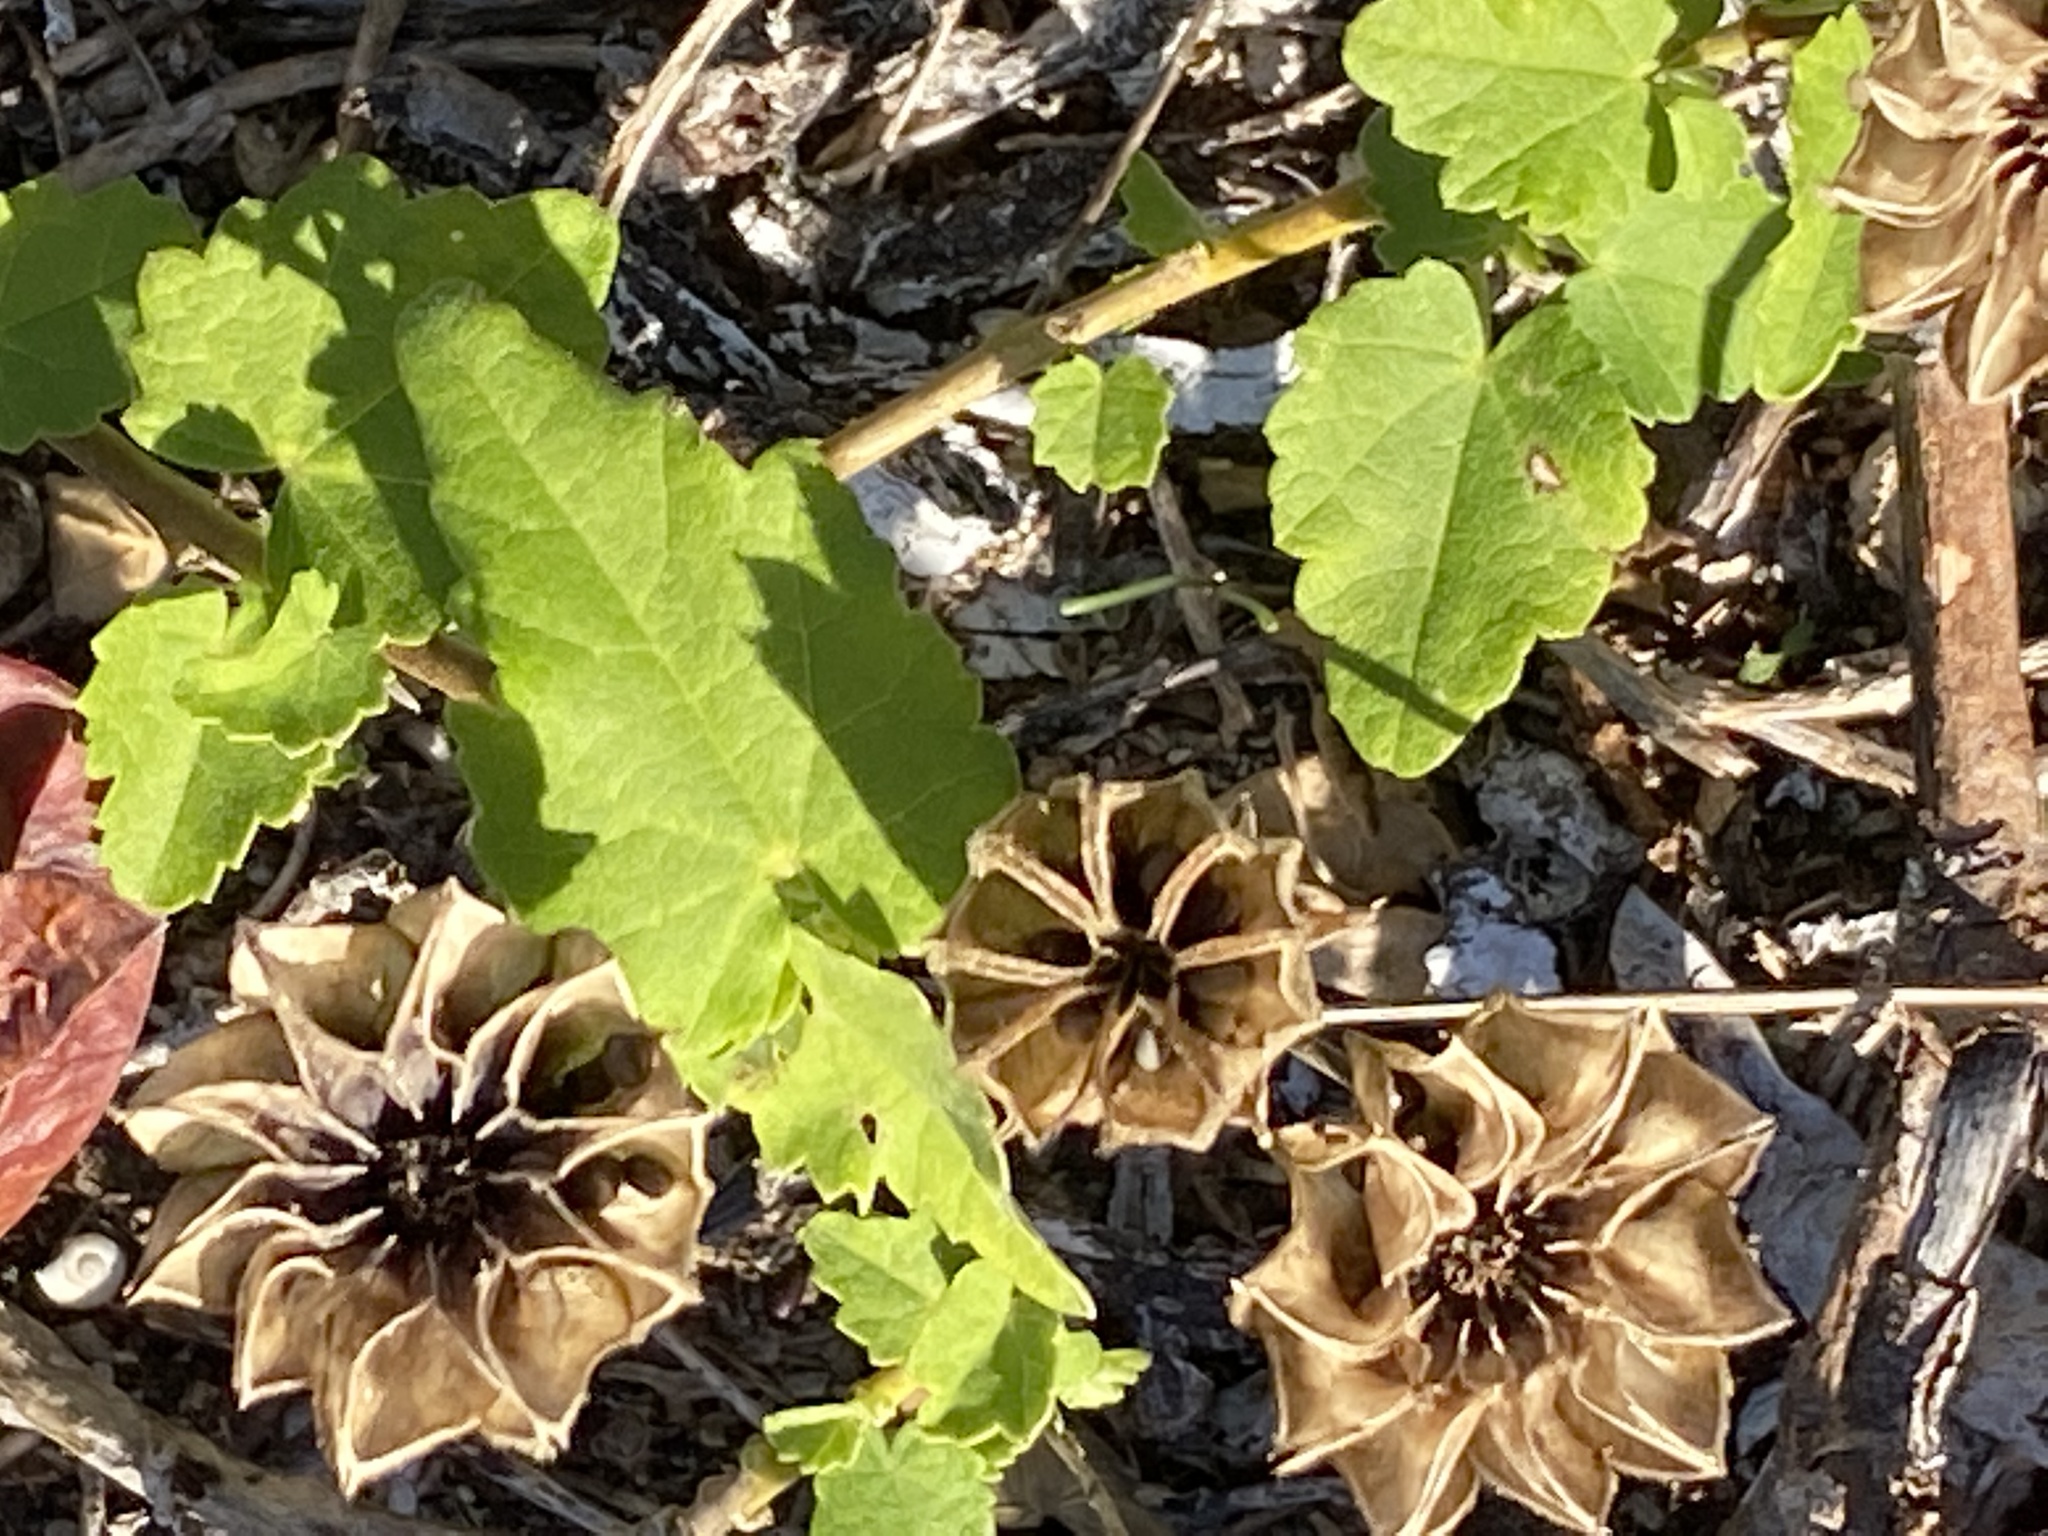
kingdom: Plantae
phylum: Tracheophyta
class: Magnoliopsida
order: Malvales
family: Malvaceae
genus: Abutilon
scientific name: Abutilon sonneratianum
